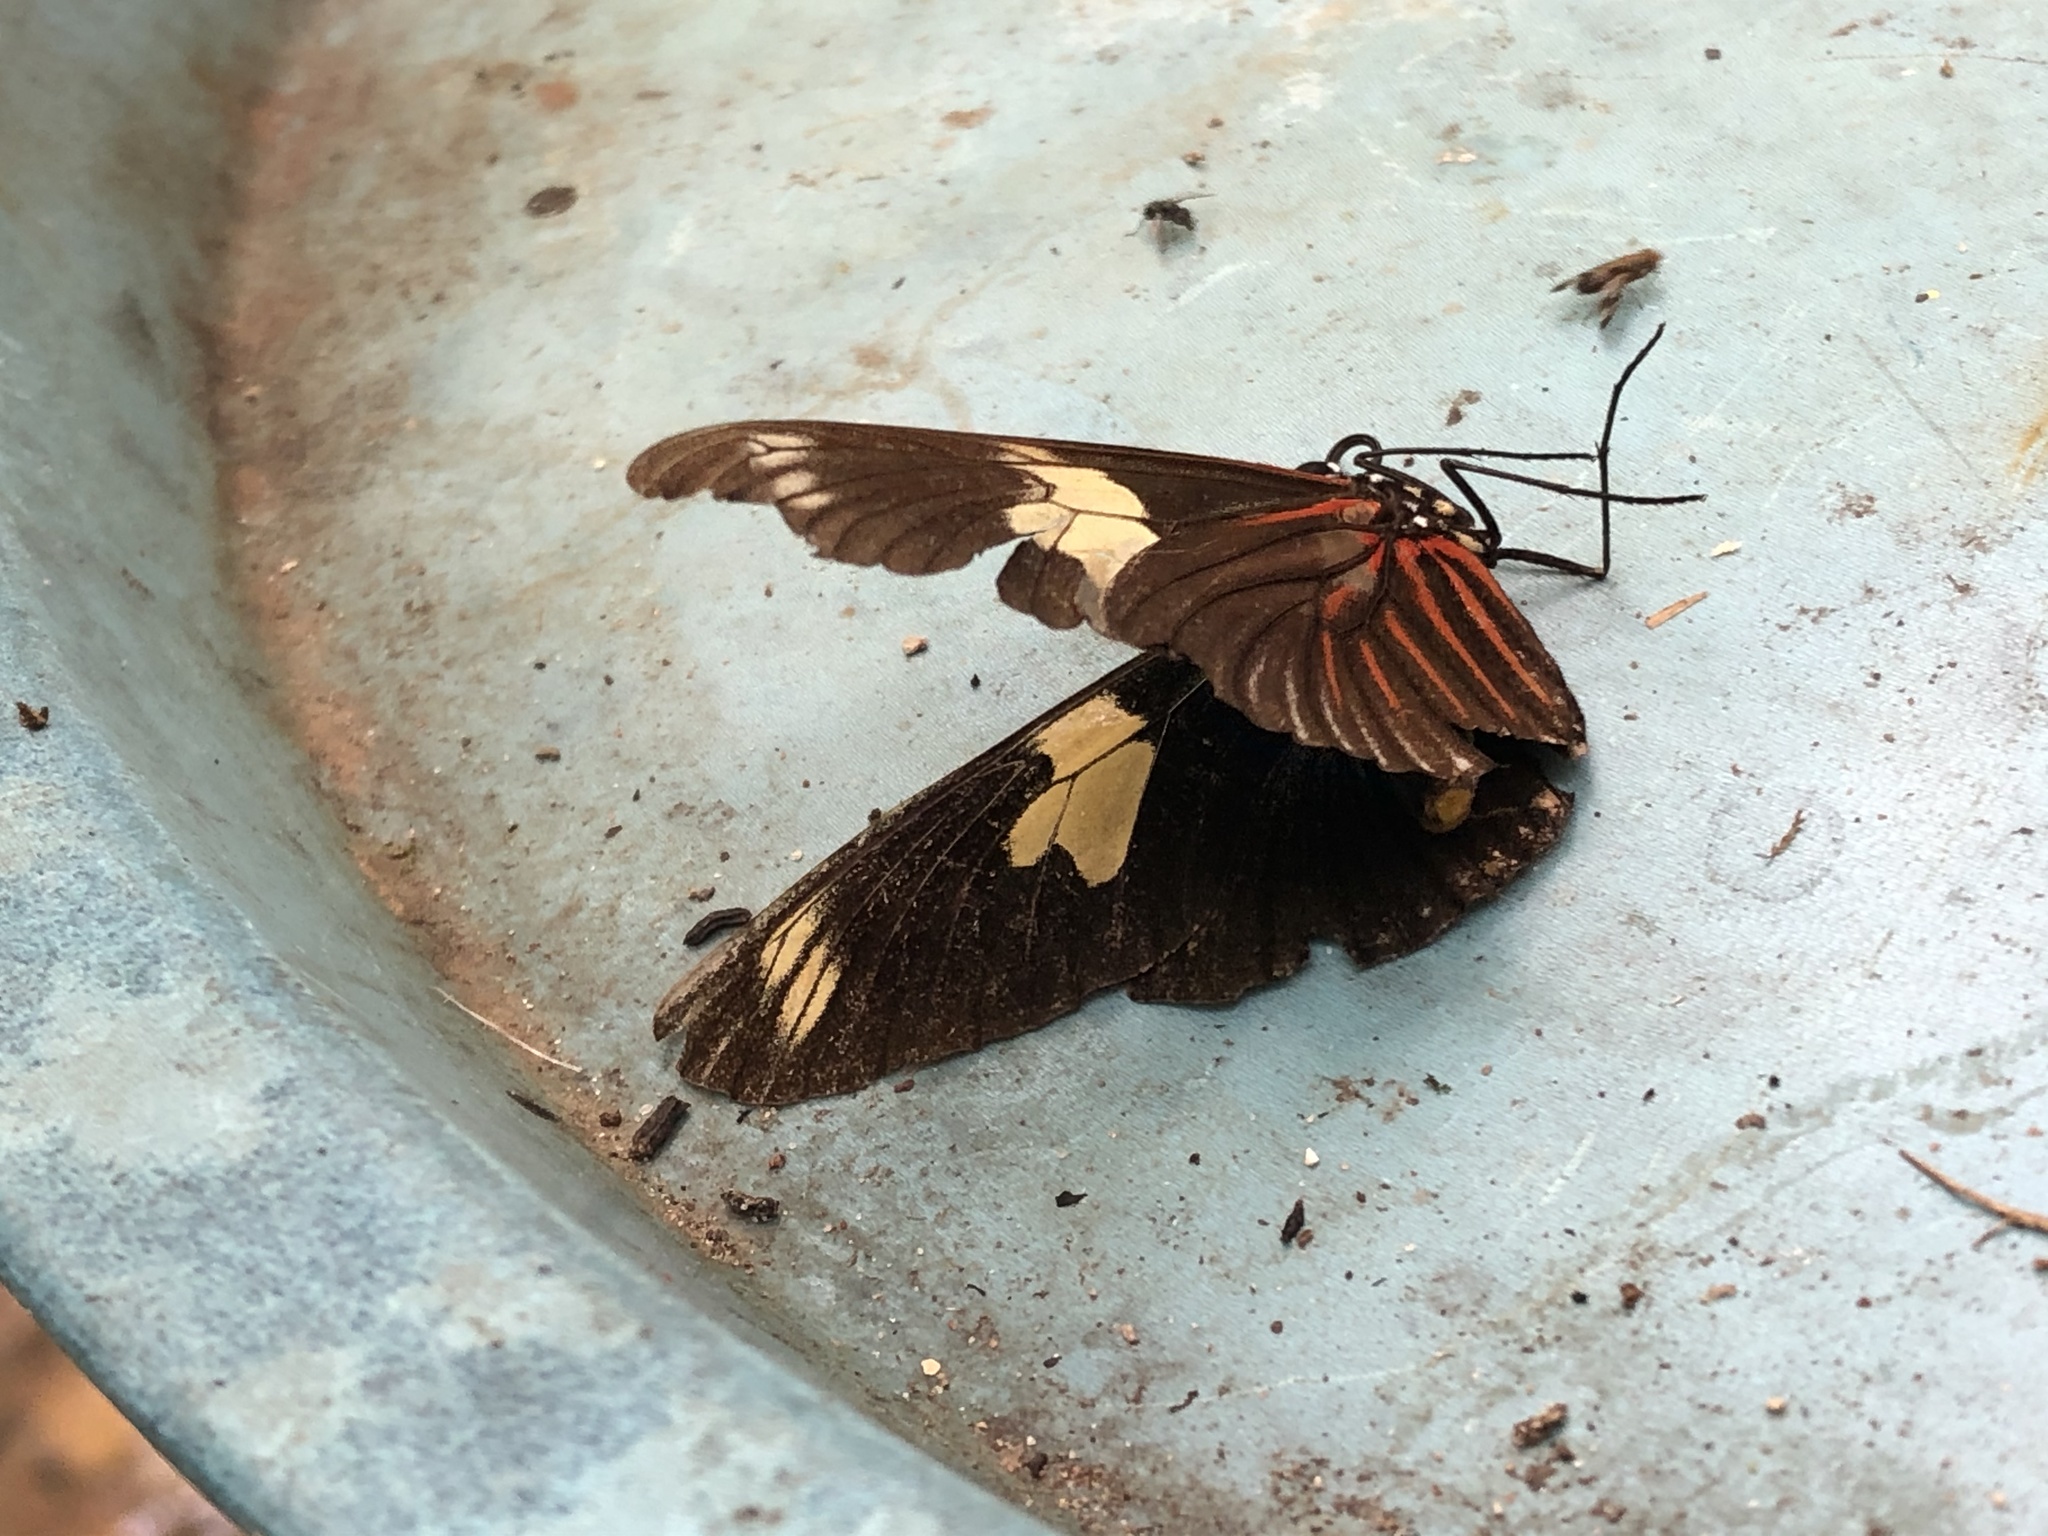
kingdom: Animalia
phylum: Arthropoda
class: Insecta
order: Lepidoptera
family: Nymphalidae
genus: Heliconius
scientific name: Heliconius doris
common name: Doris longwing
